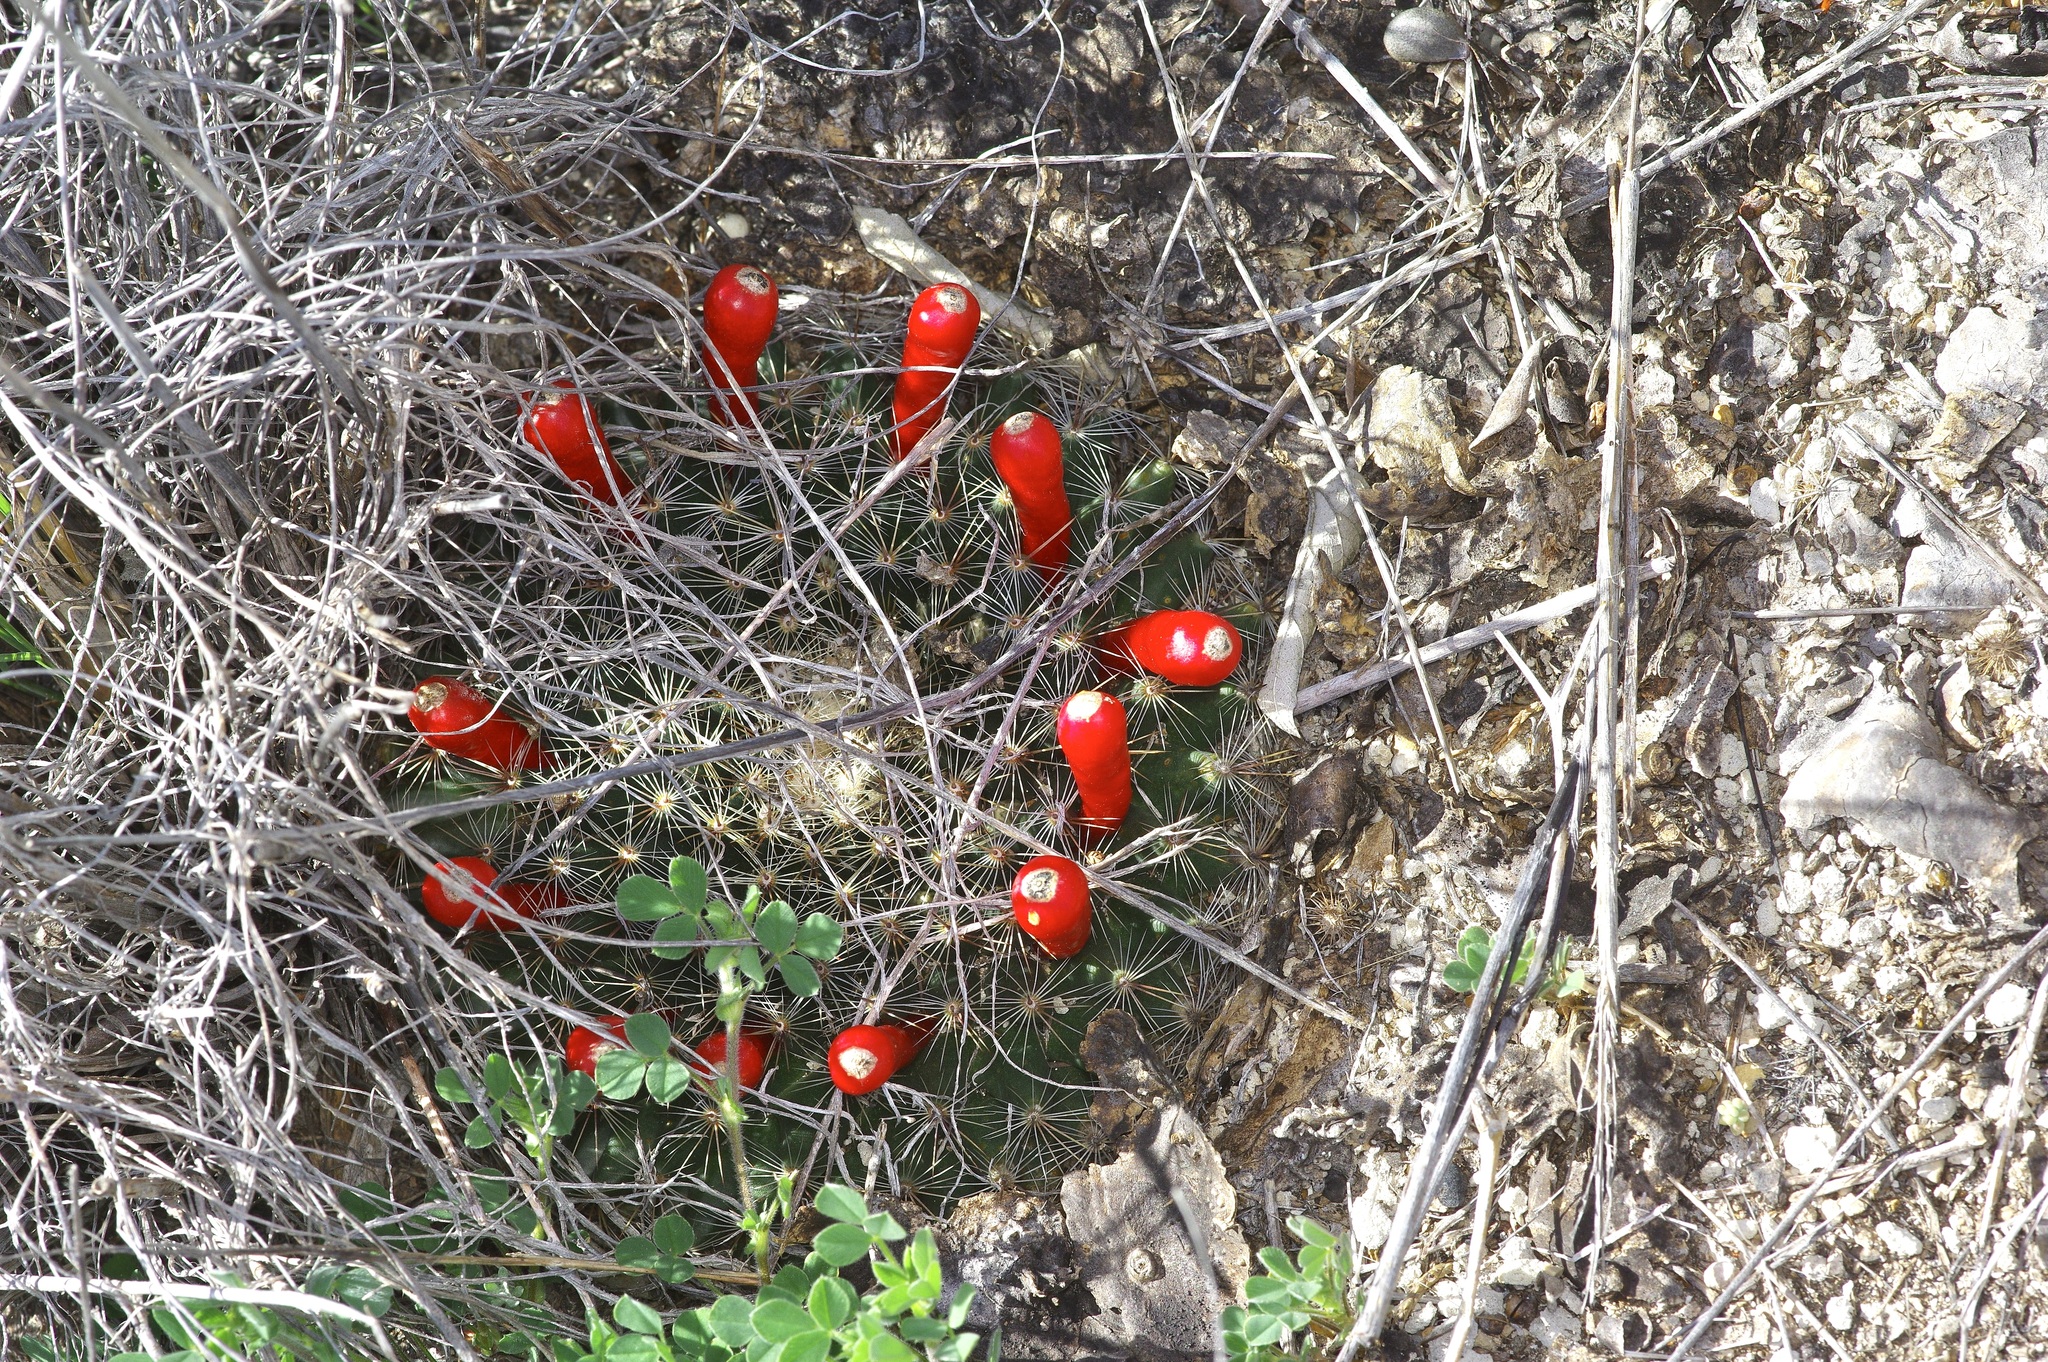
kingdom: Plantae
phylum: Tracheophyta
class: Magnoliopsida
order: Caryophyllales
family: Cactaceae
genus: Mammillaria
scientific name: Mammillaria heyderi
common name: Little nipple cactus
